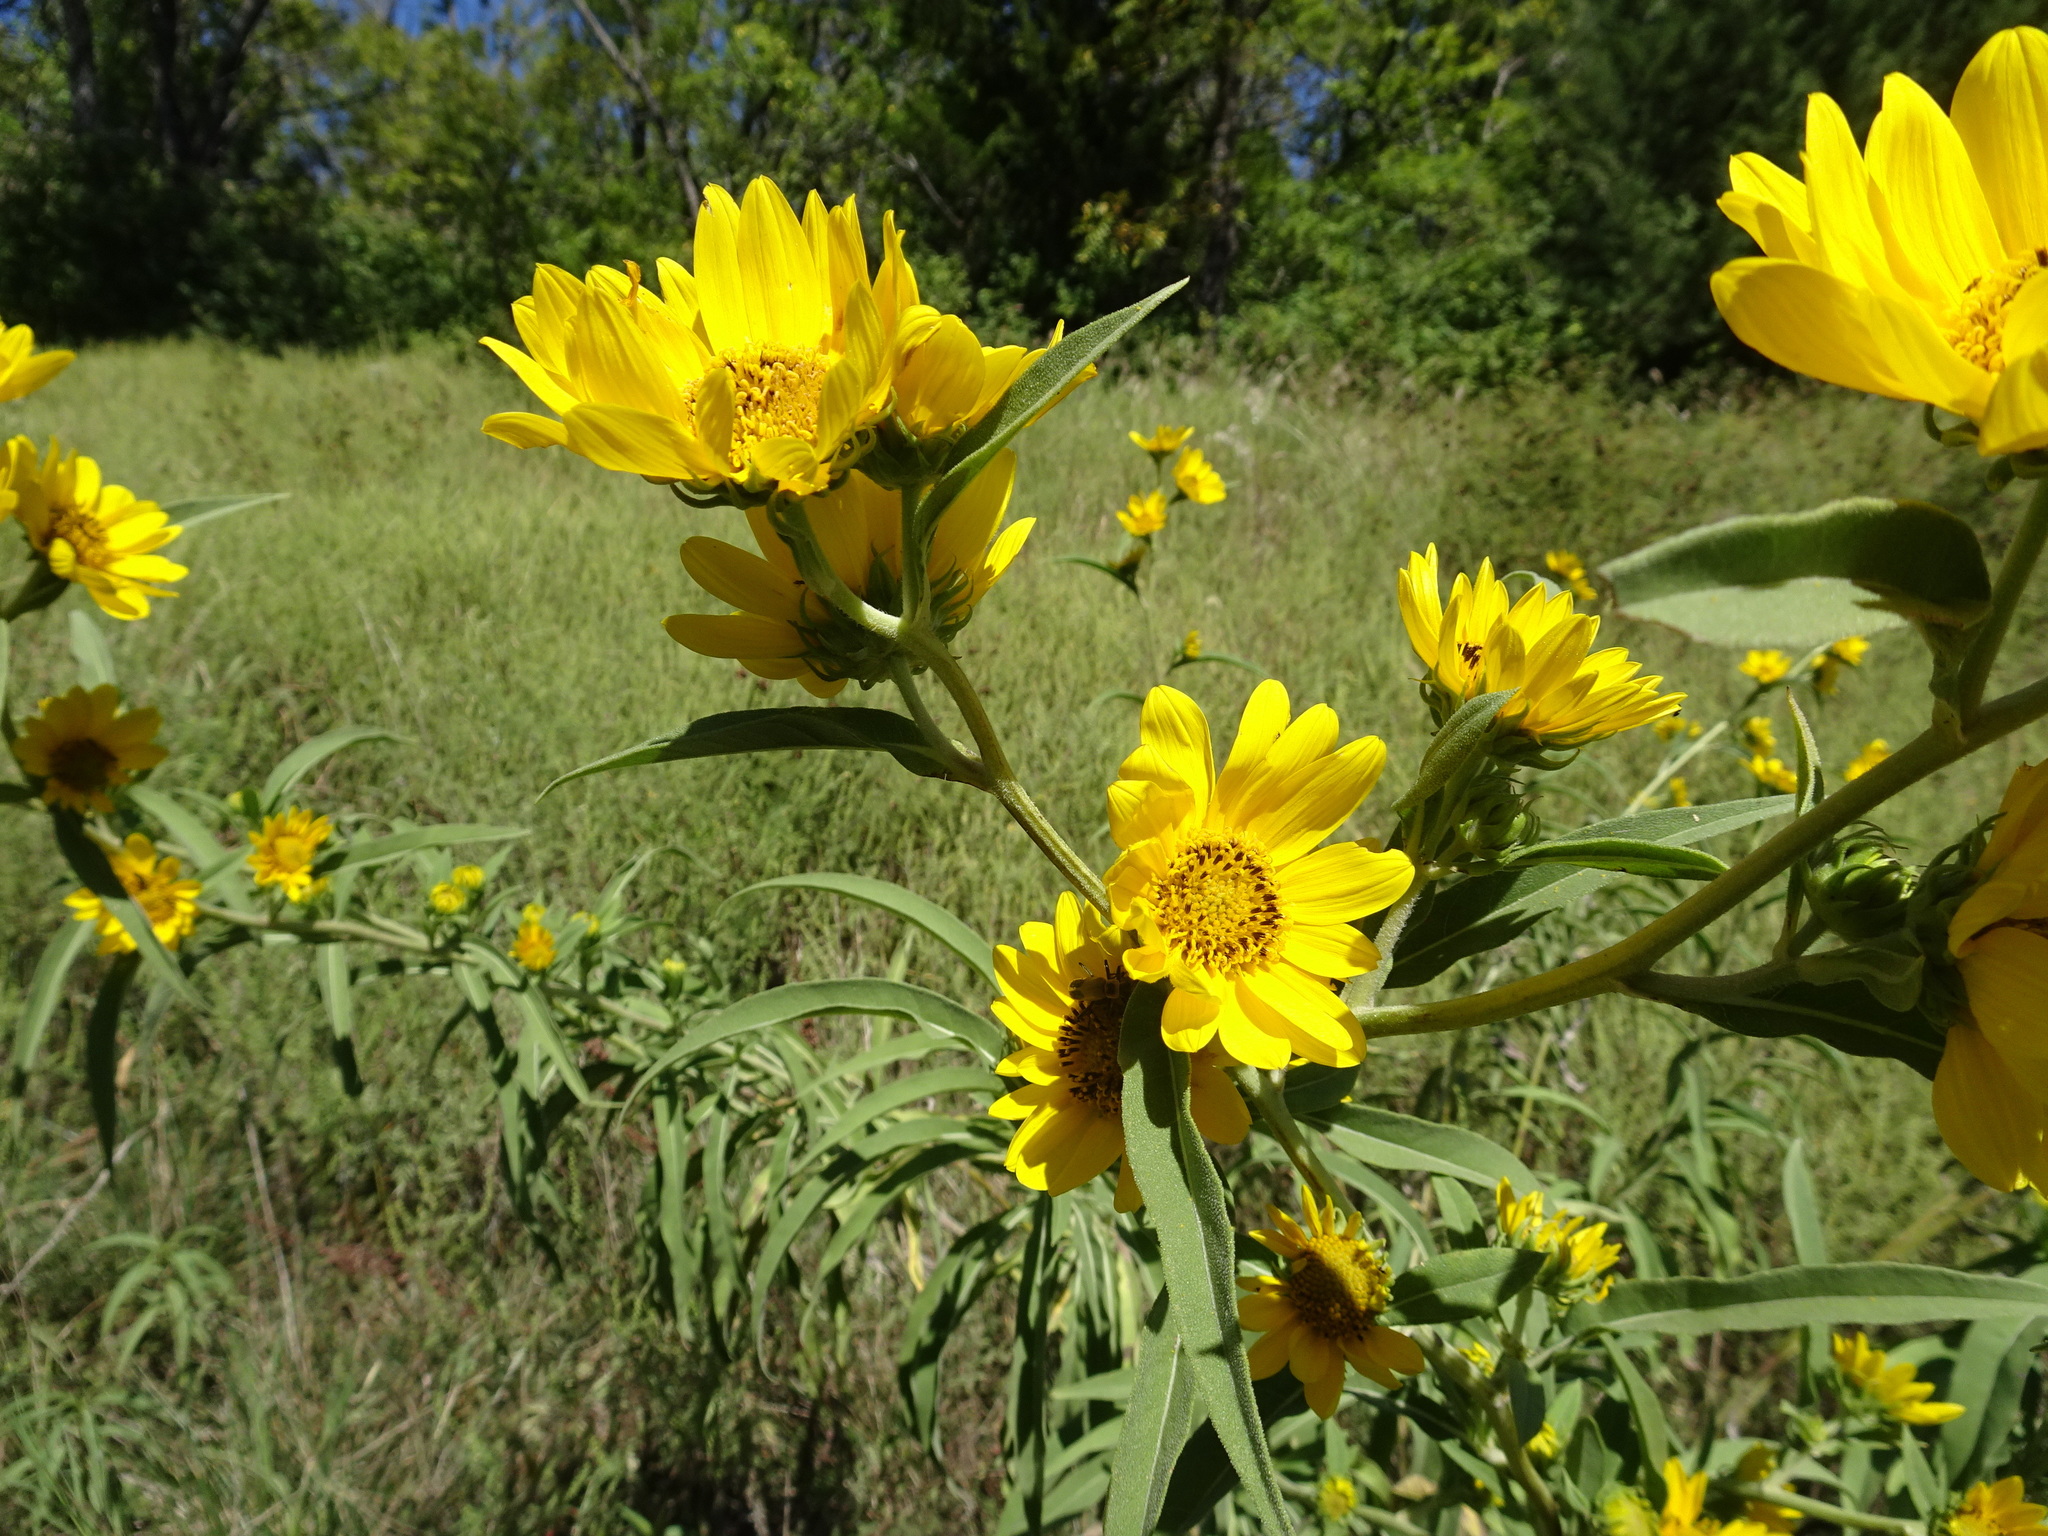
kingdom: Plantae
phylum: Tracheophyta
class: Magnoliopsida
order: Asterales
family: Asteraceae
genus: Helianthus
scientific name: Helianthus maximiliani
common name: Maximilian's sunflower
